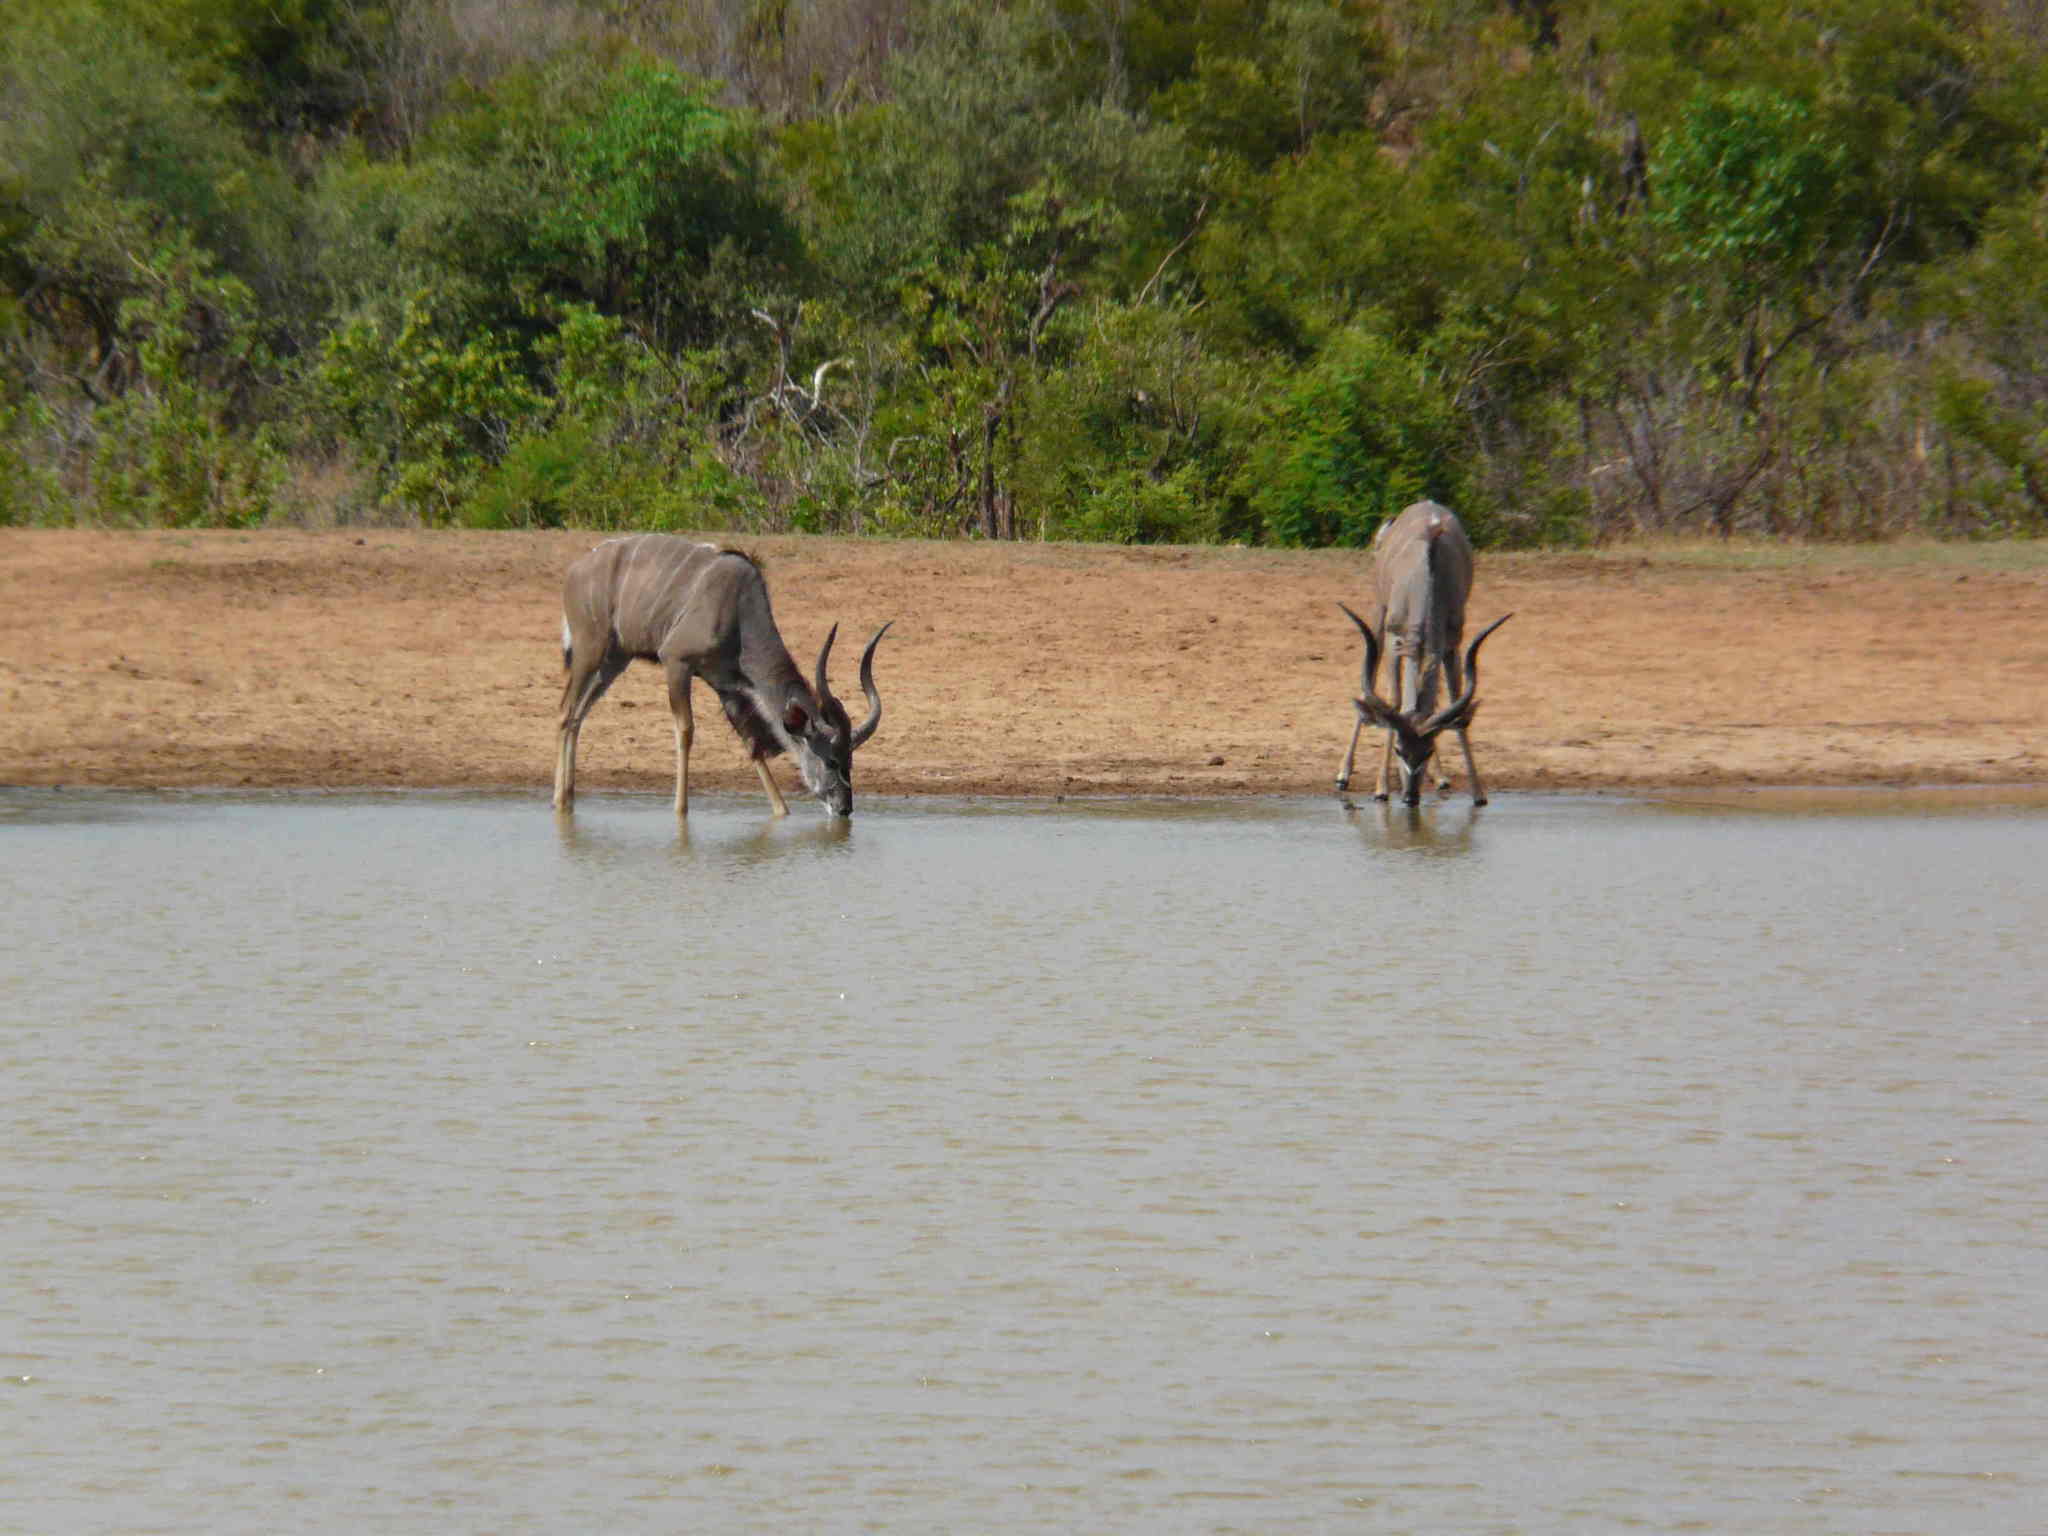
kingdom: Animalia
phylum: Chordata
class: Mammalia
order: Artiodactyla
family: Bovidae
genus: Tragelaphus
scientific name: Tragelaphus strepsiceros
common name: Greater kudu
